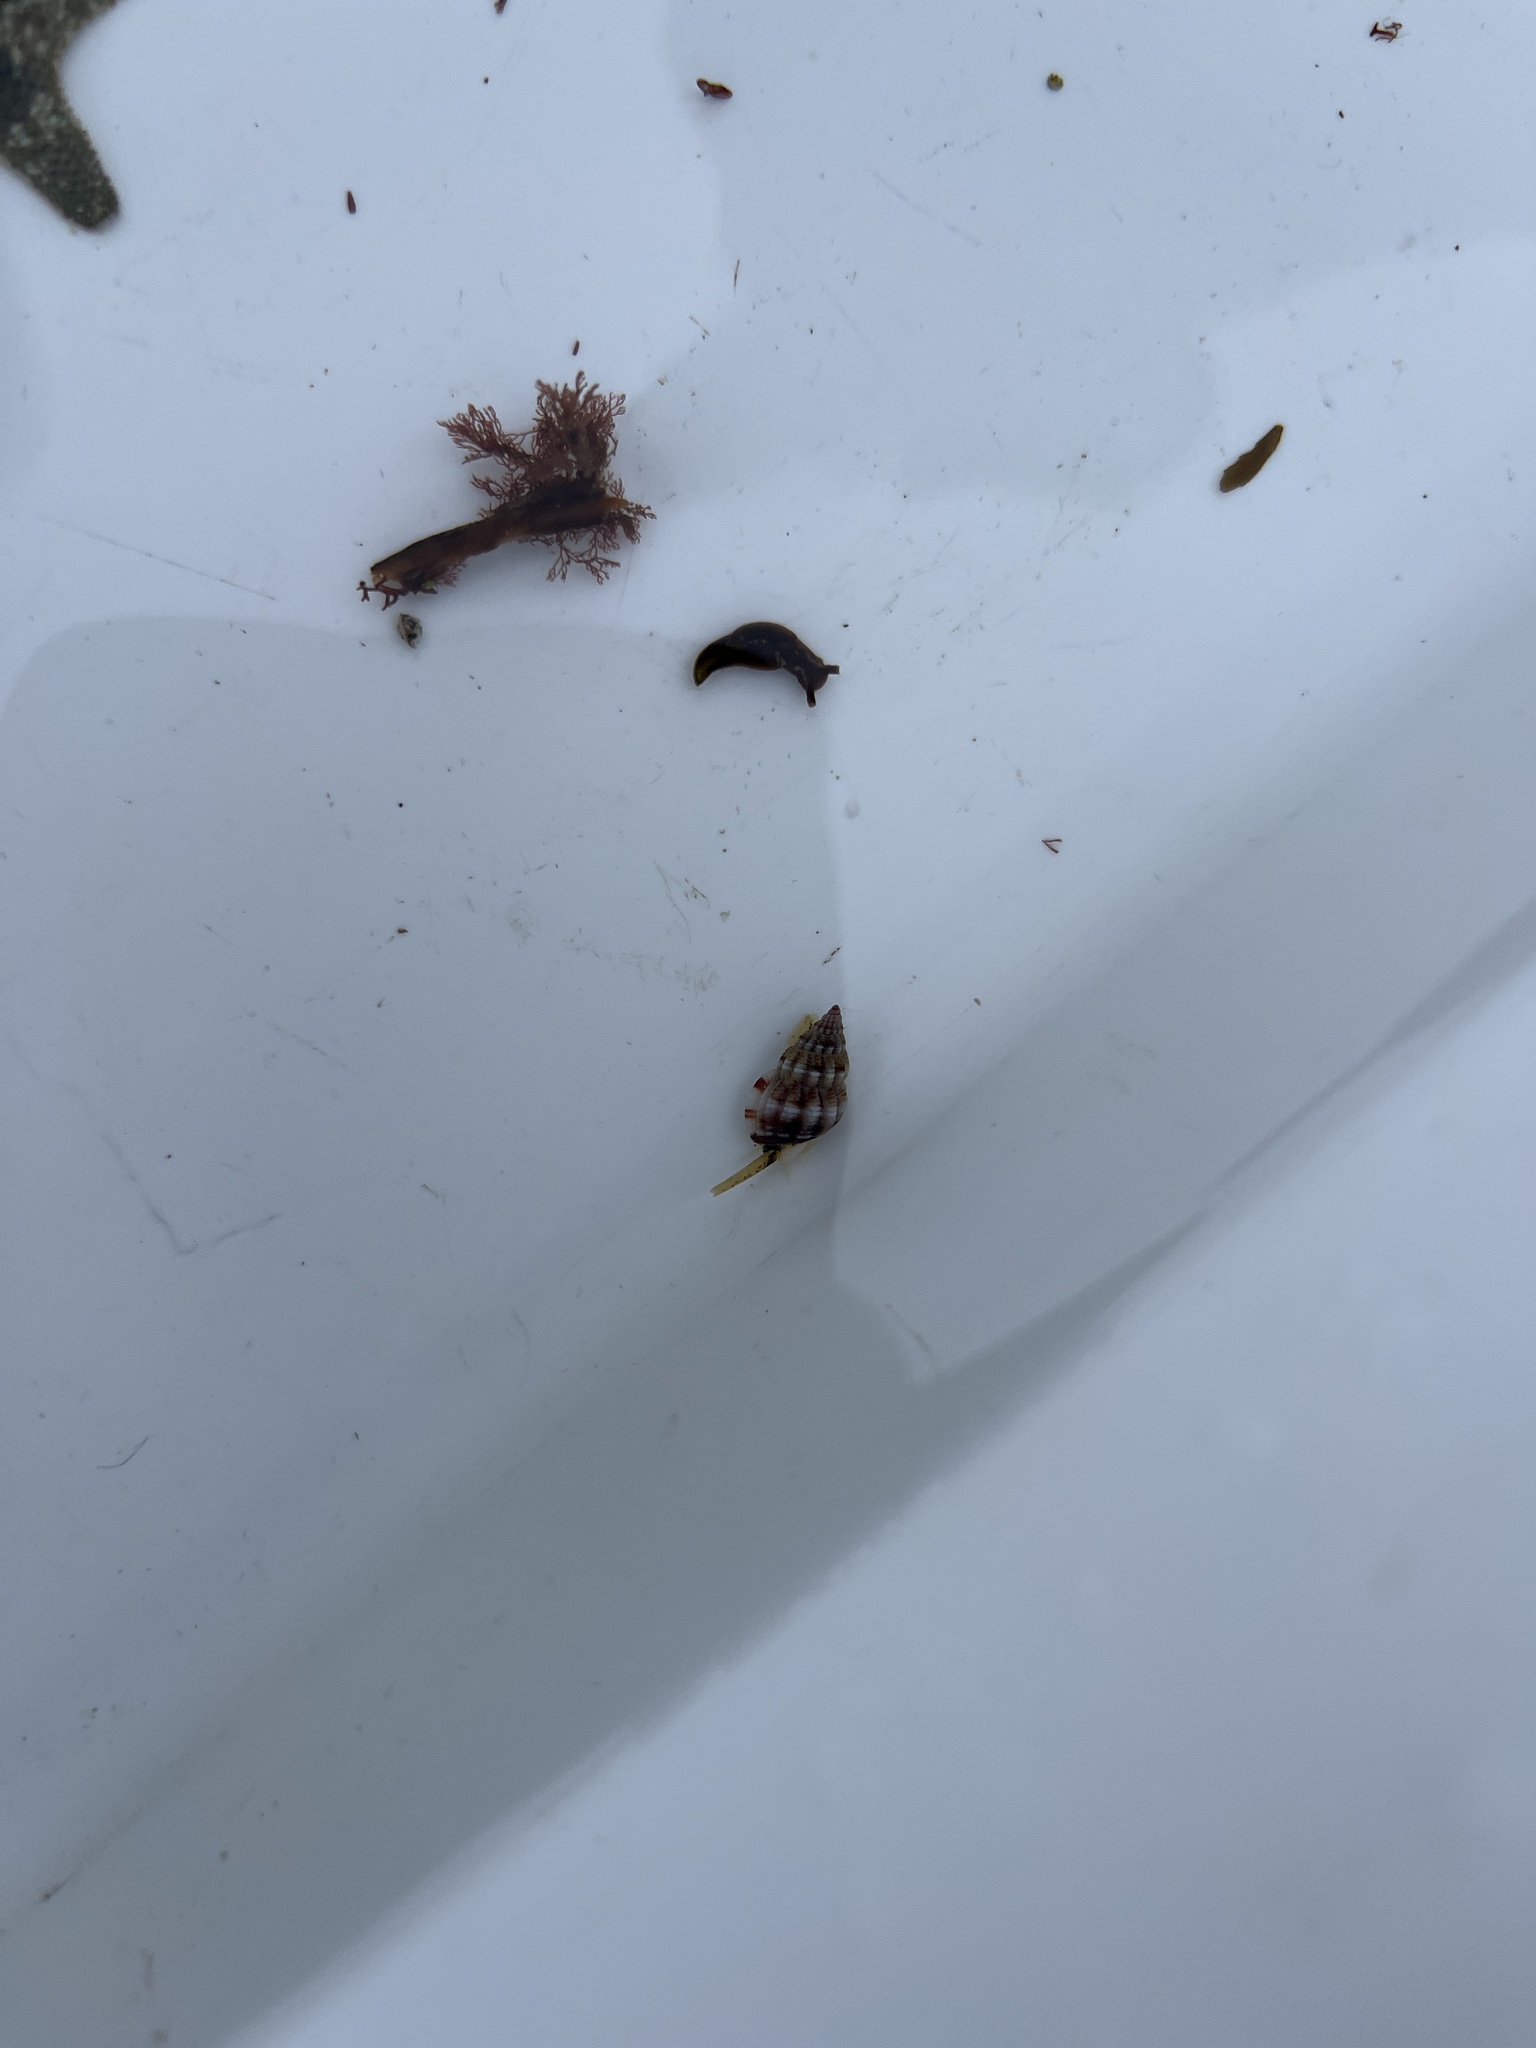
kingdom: Animalia
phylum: Mollusca
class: Gastropoda
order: Neogastropoda
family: Nassariidae
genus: Tritia
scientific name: Tritia incrassata
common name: Thick-lipped dog whelk
